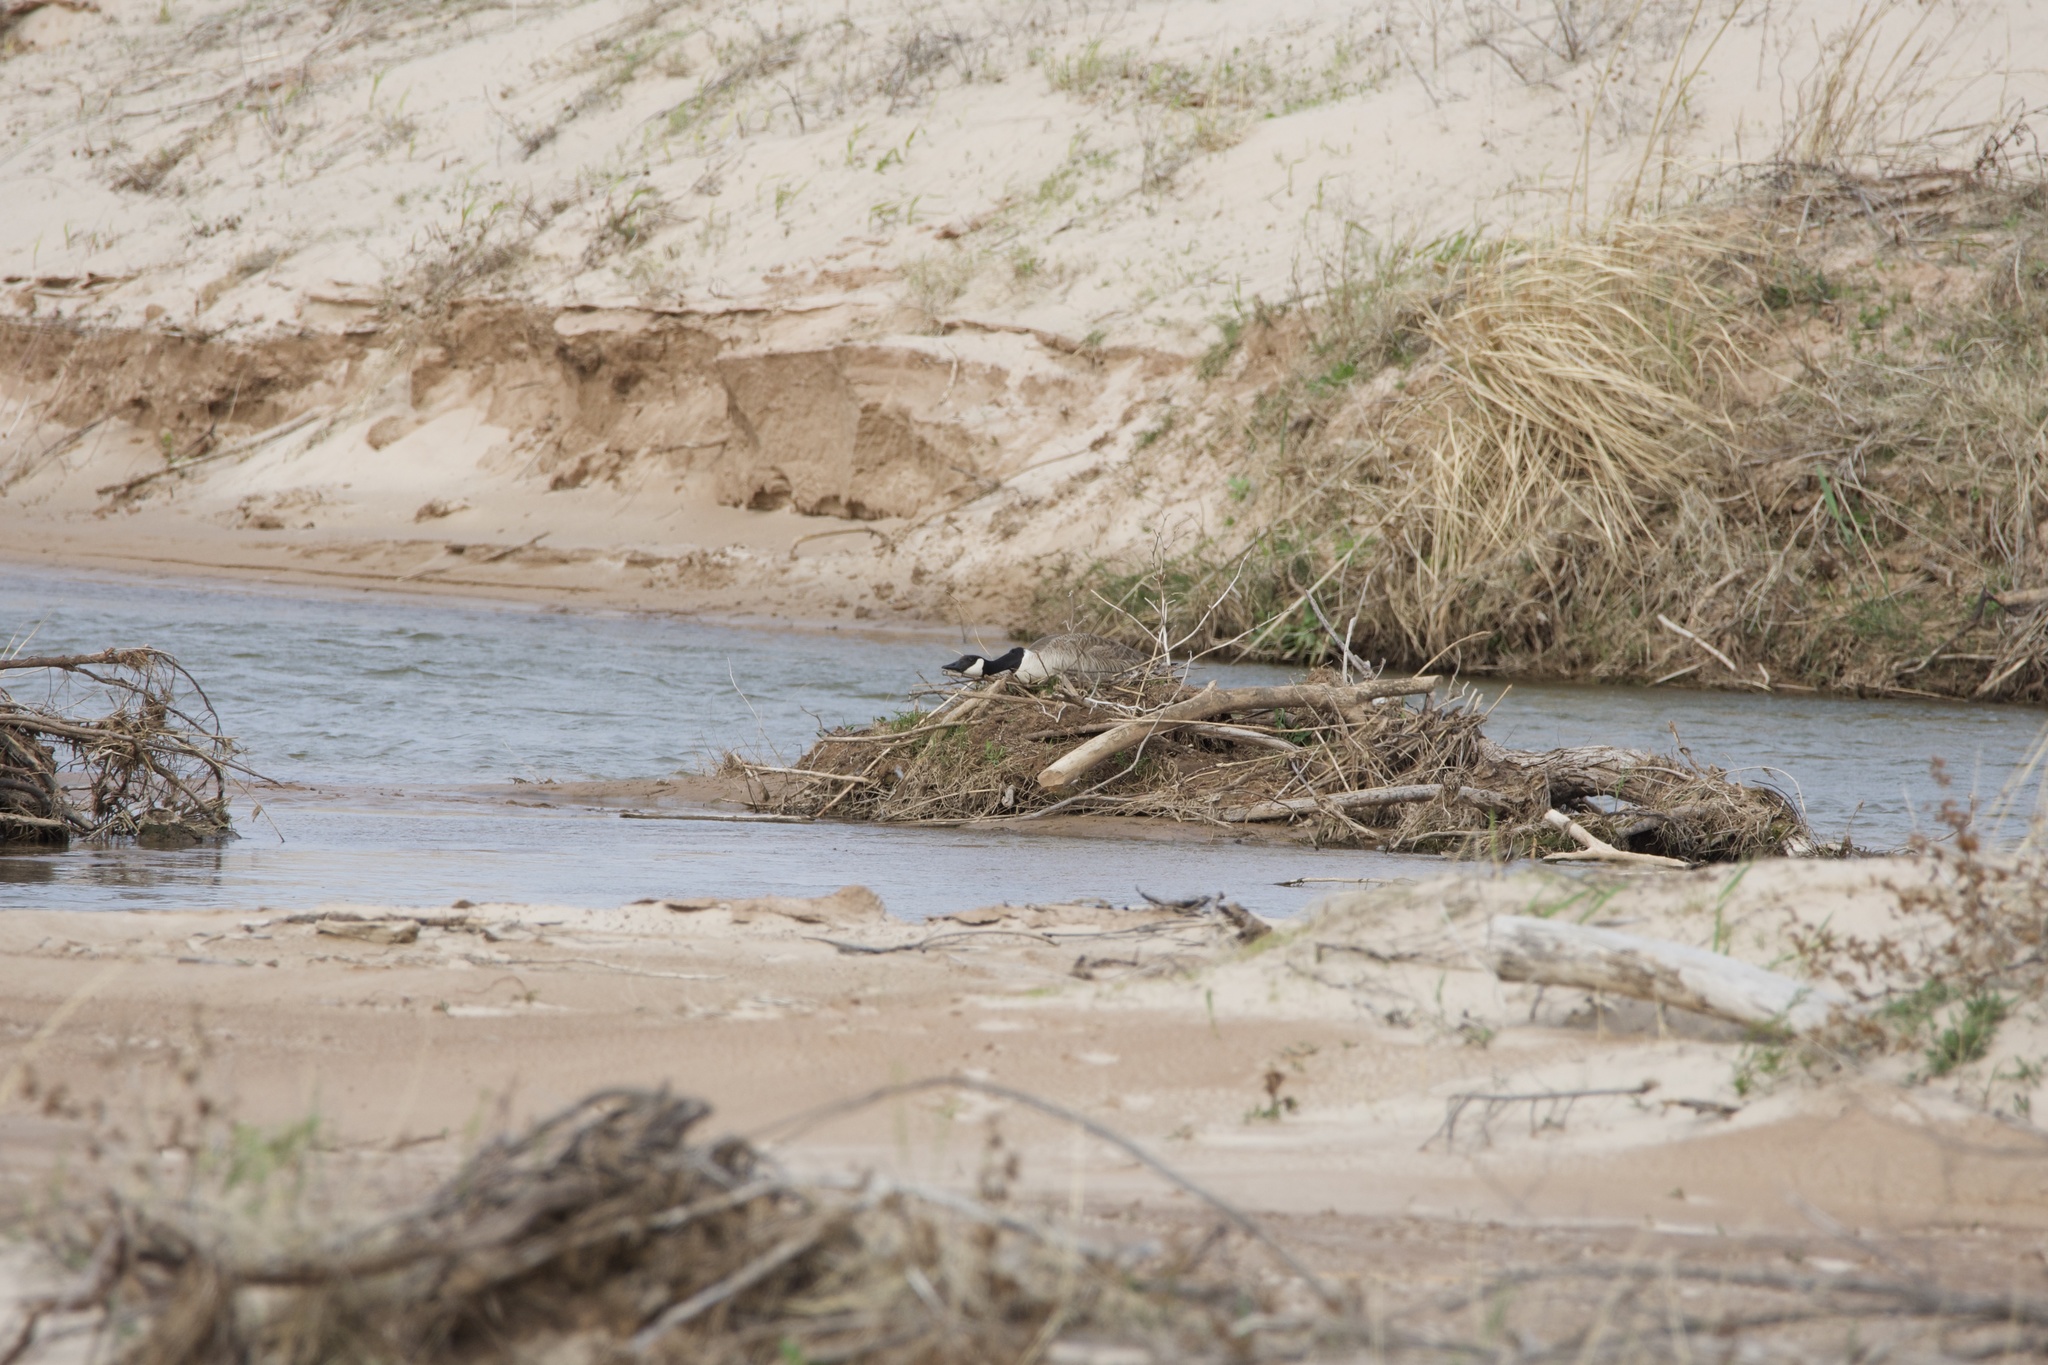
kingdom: Animalia
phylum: Chordata
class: Aves
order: Anseriformes
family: Anatidae
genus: Branta
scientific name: Branta canadensis
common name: Canada goose
